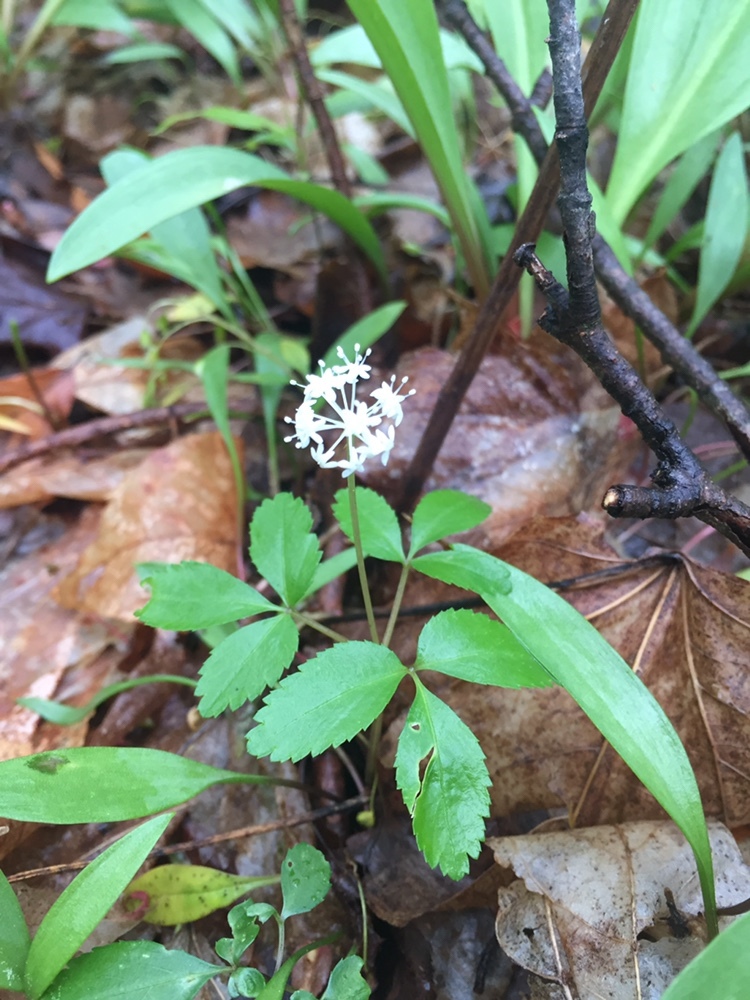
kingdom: Plantae
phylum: Tracheophyta
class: Magnoliopsida
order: Apiales
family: Araliaceae
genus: Panax
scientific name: Panax trifolius
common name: Dwarf ginseng
